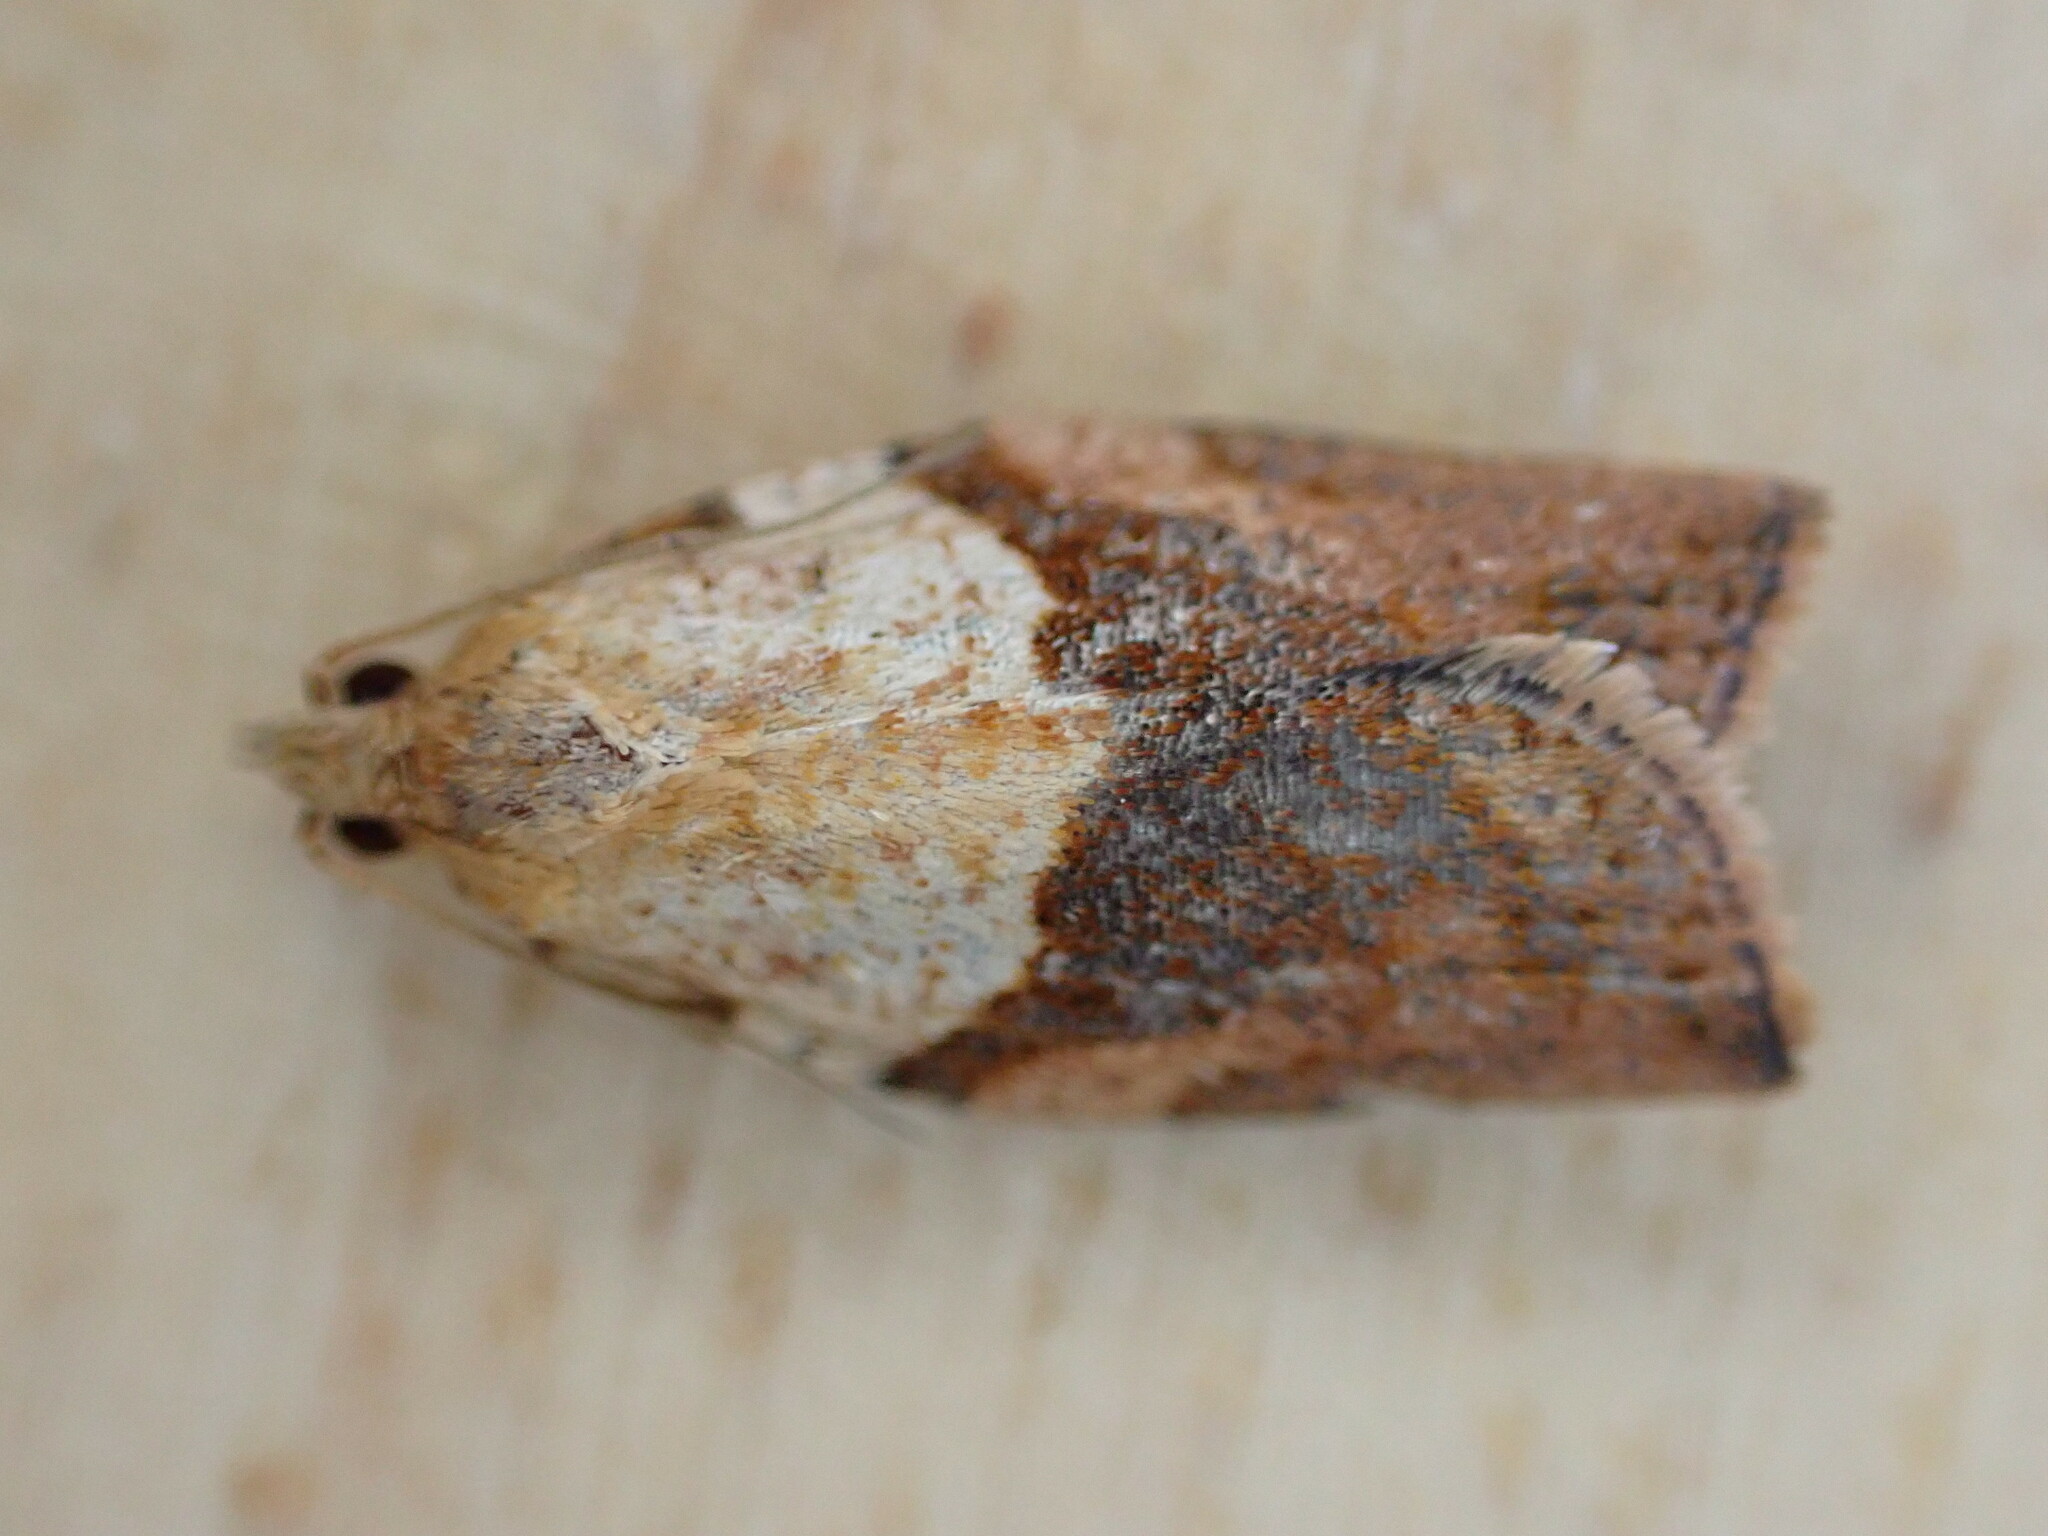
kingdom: Animalia
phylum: Arthropoda
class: Insecta
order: Lepidoptera
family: Tortricidae
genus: Epiphyas
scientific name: Epiphyas postvittana
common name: Light brown apple moth
